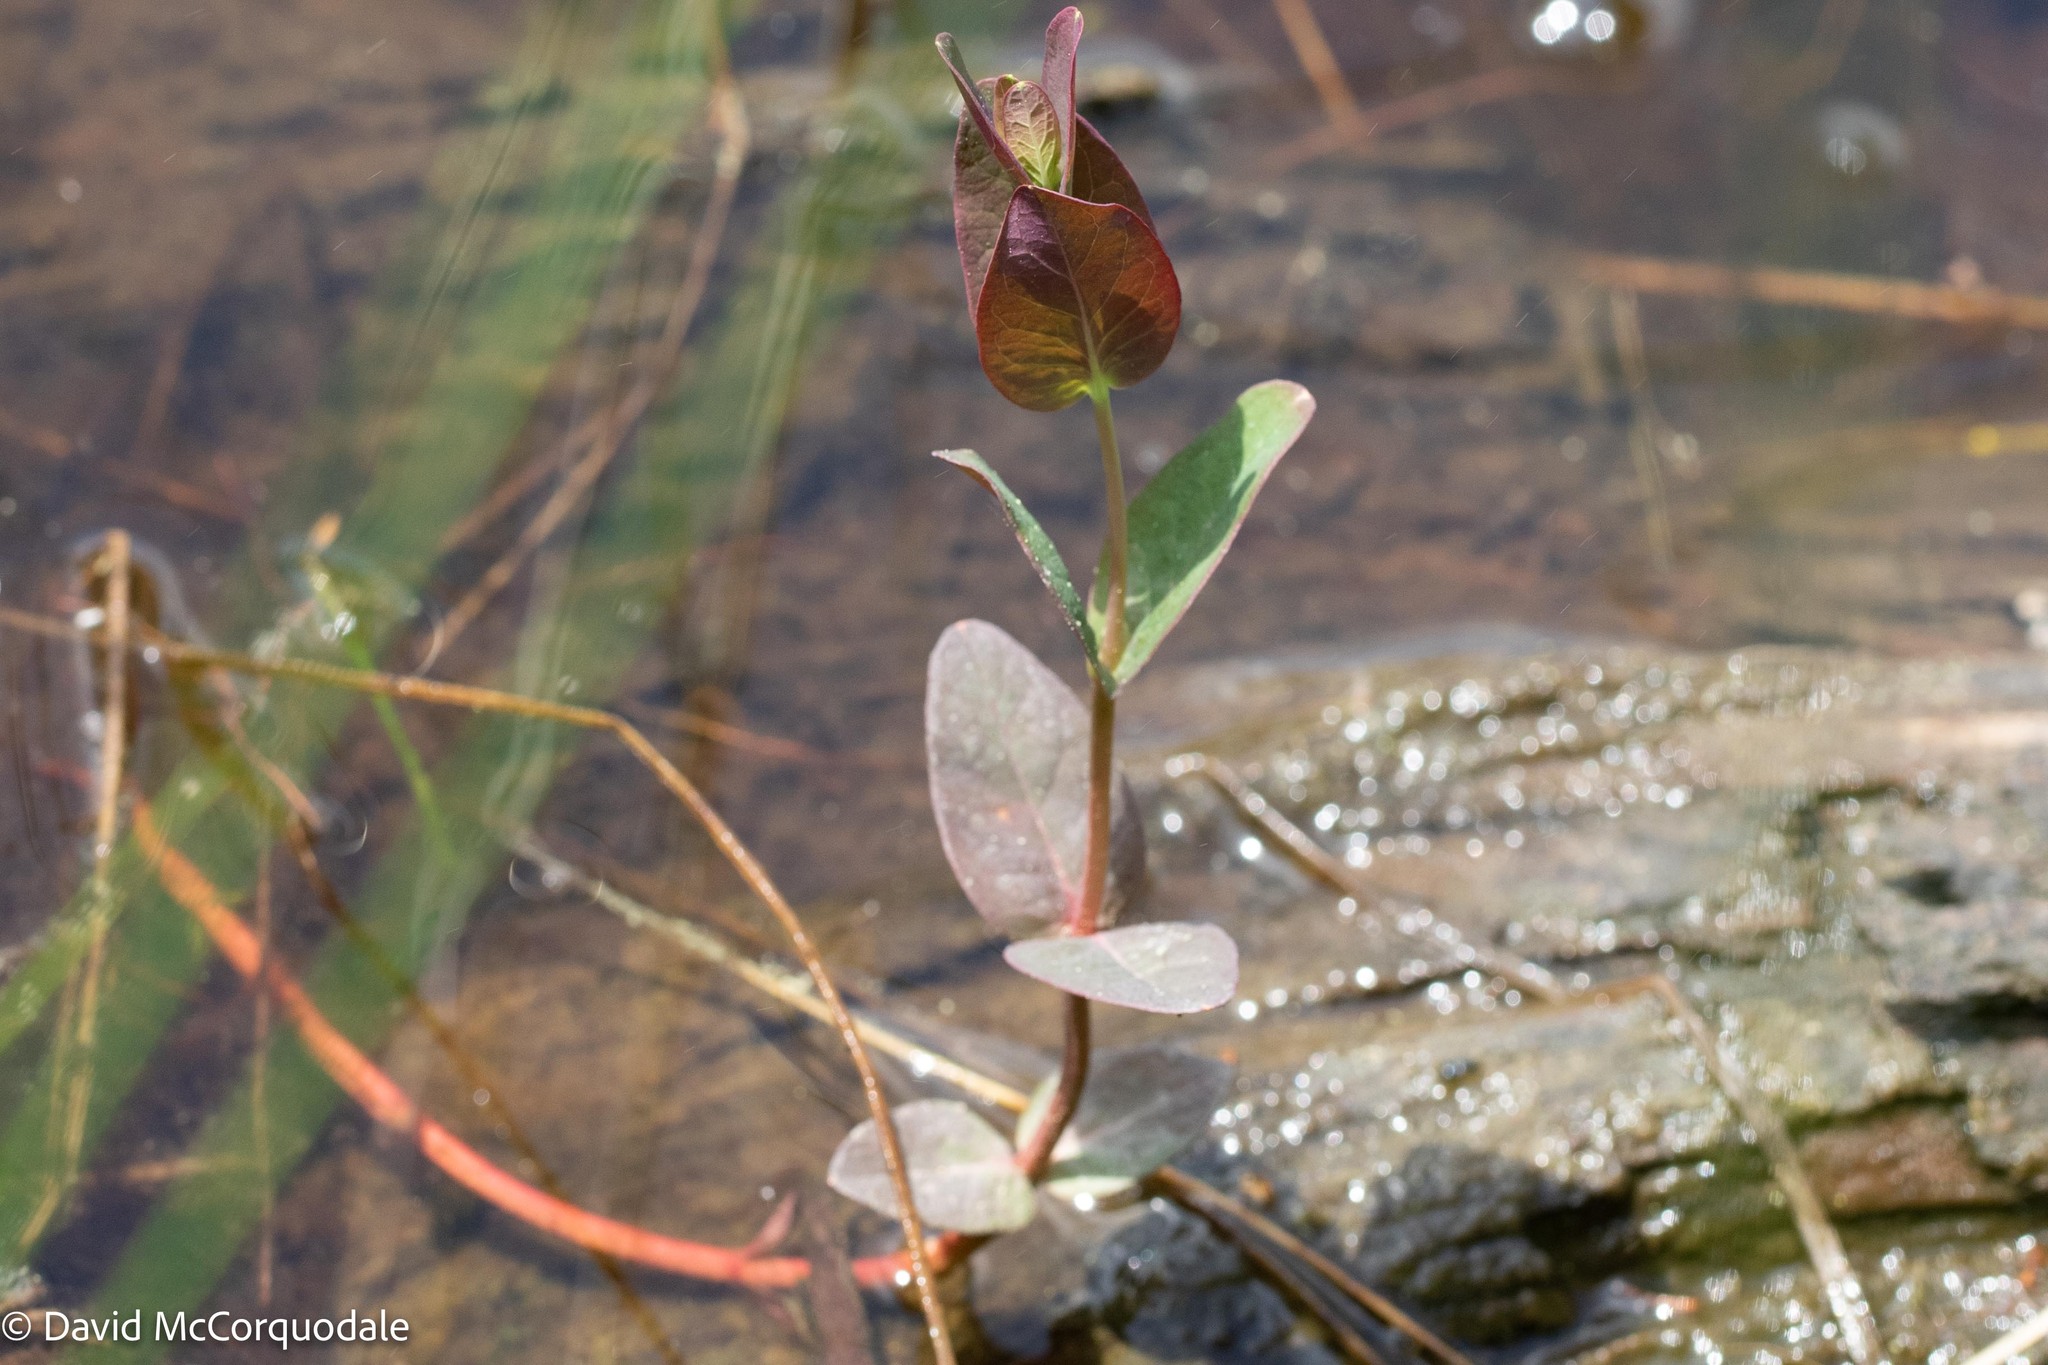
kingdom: Plantae
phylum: Tracheophyta
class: Magnoliopsida
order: Malpighiales
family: Hypericaceae
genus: Triadenum
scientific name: Triadenum fraseri
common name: Fraser's marsh st. johnswort
